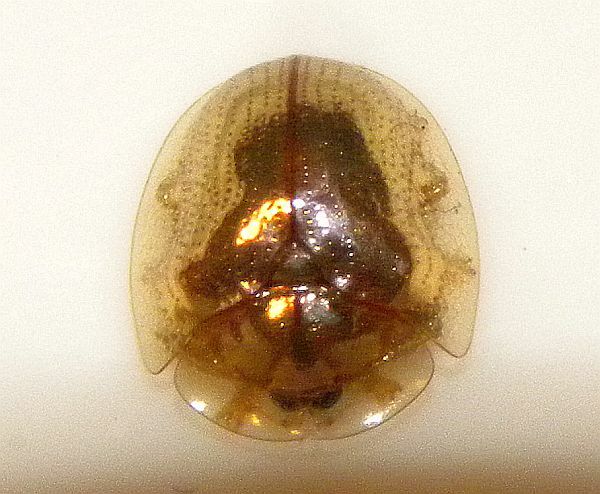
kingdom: Animalia
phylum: Arthropoda
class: Insecta
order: Coleoptera
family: Chrysomelidae
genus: Charidotella
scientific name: Charidotella sexpunctata
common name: Golden tortoise beetle
